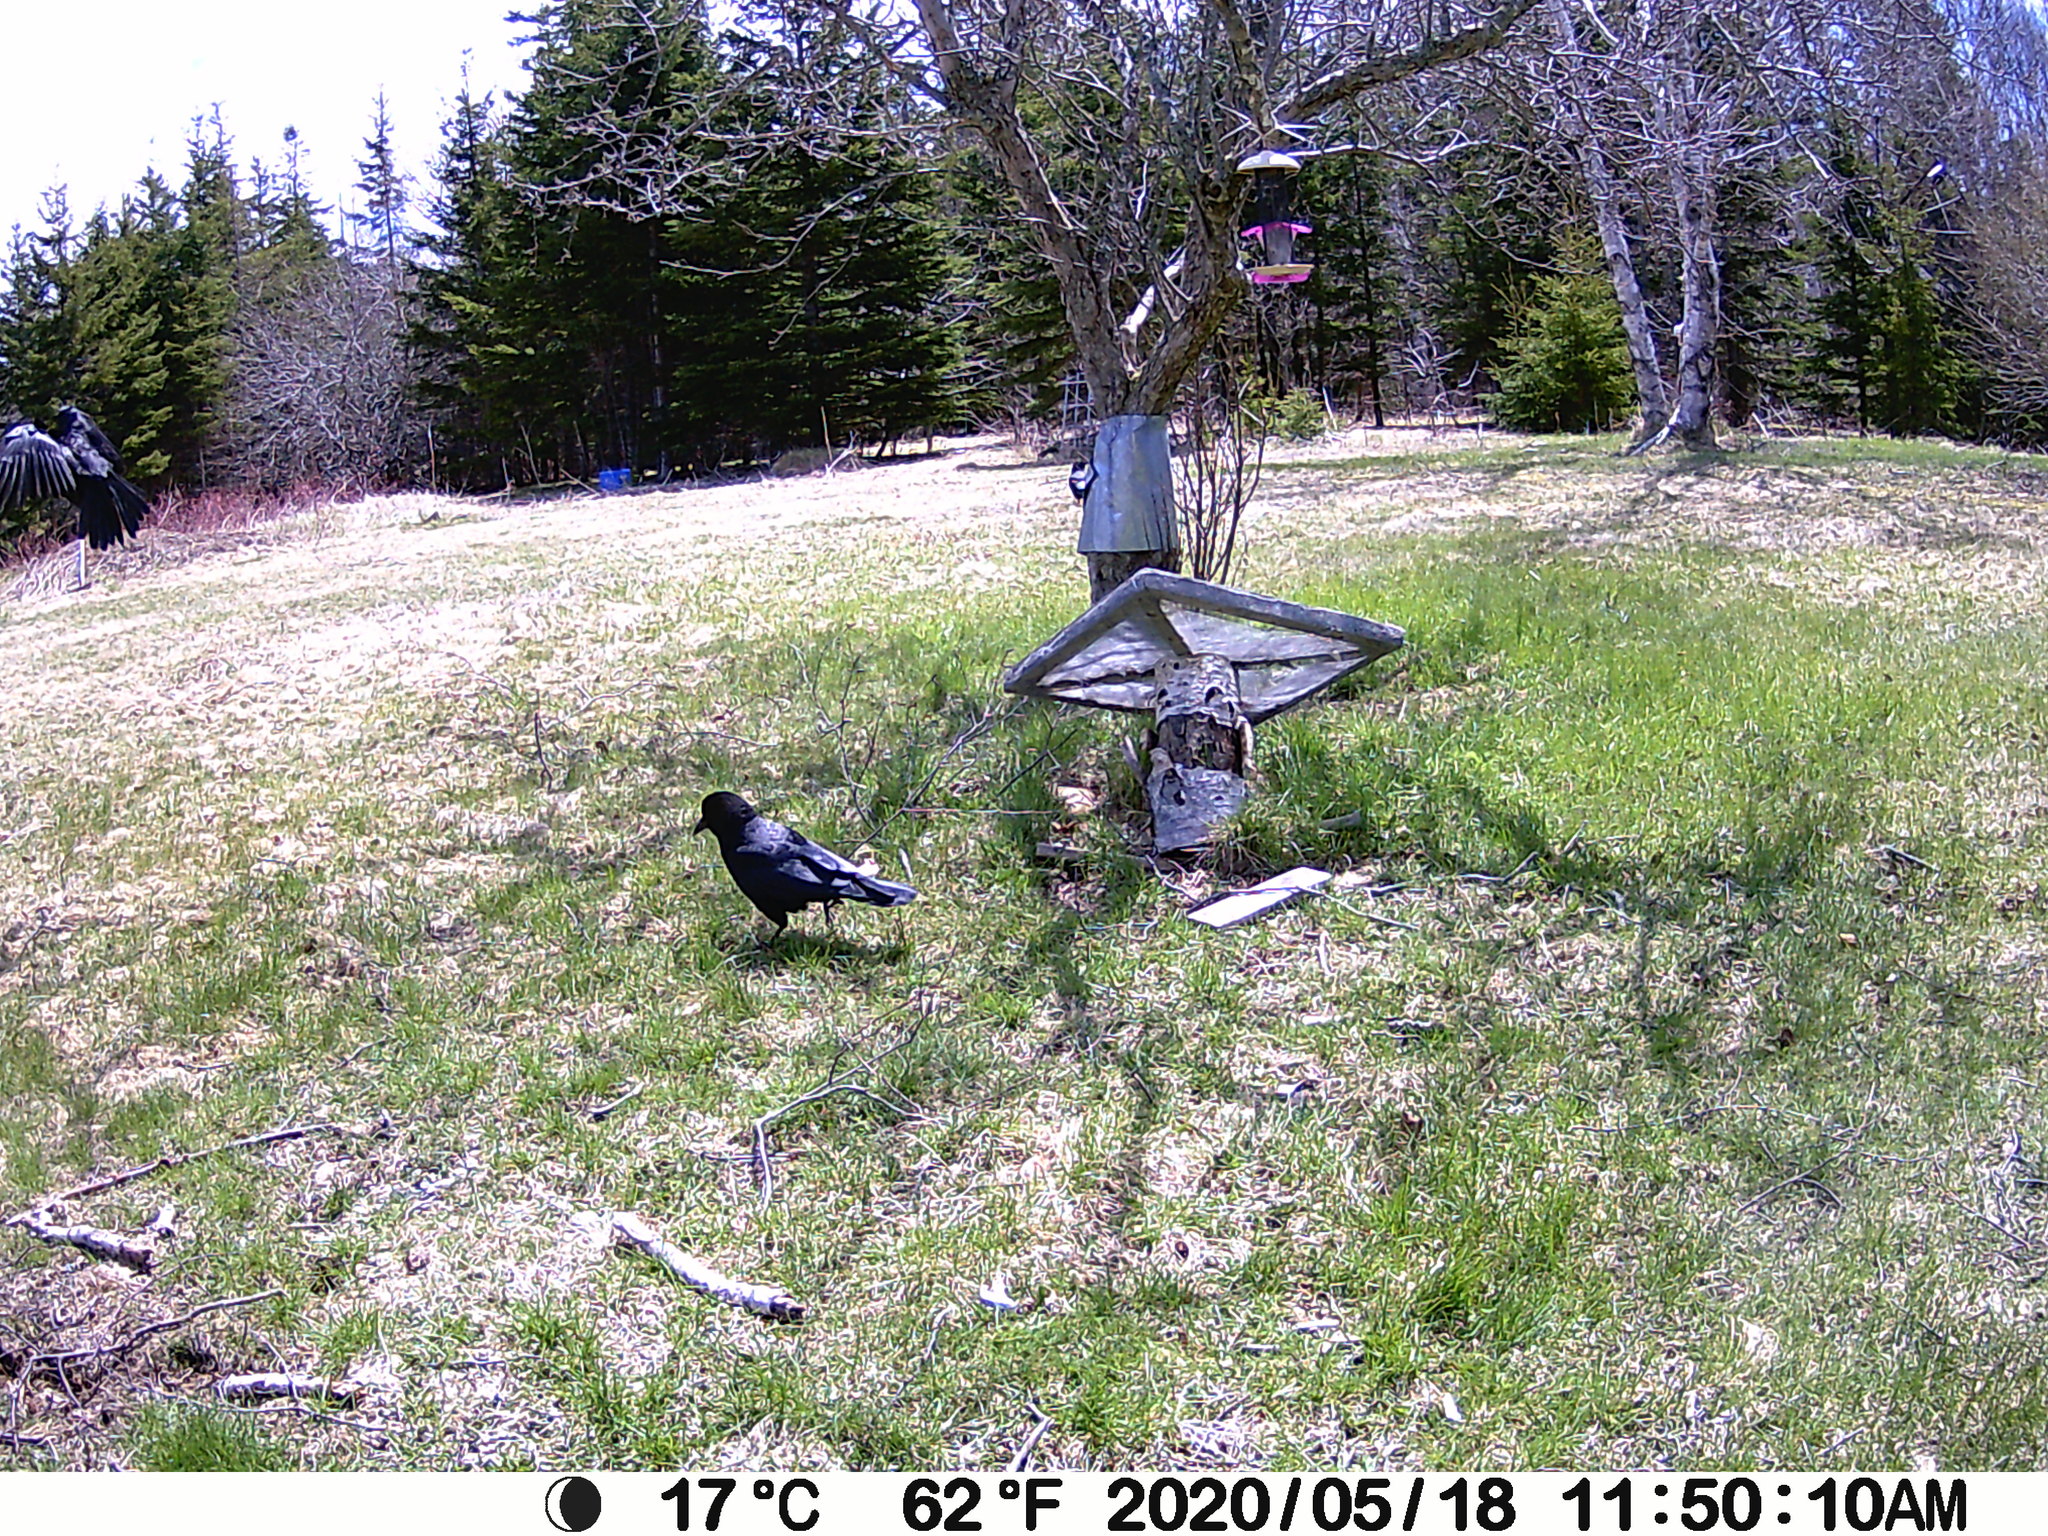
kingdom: Animalia
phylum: Chordata
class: Aves
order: Passeriformes
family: Corvidae
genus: Corvus
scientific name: Corvus brachyrhynchos
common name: American crow
